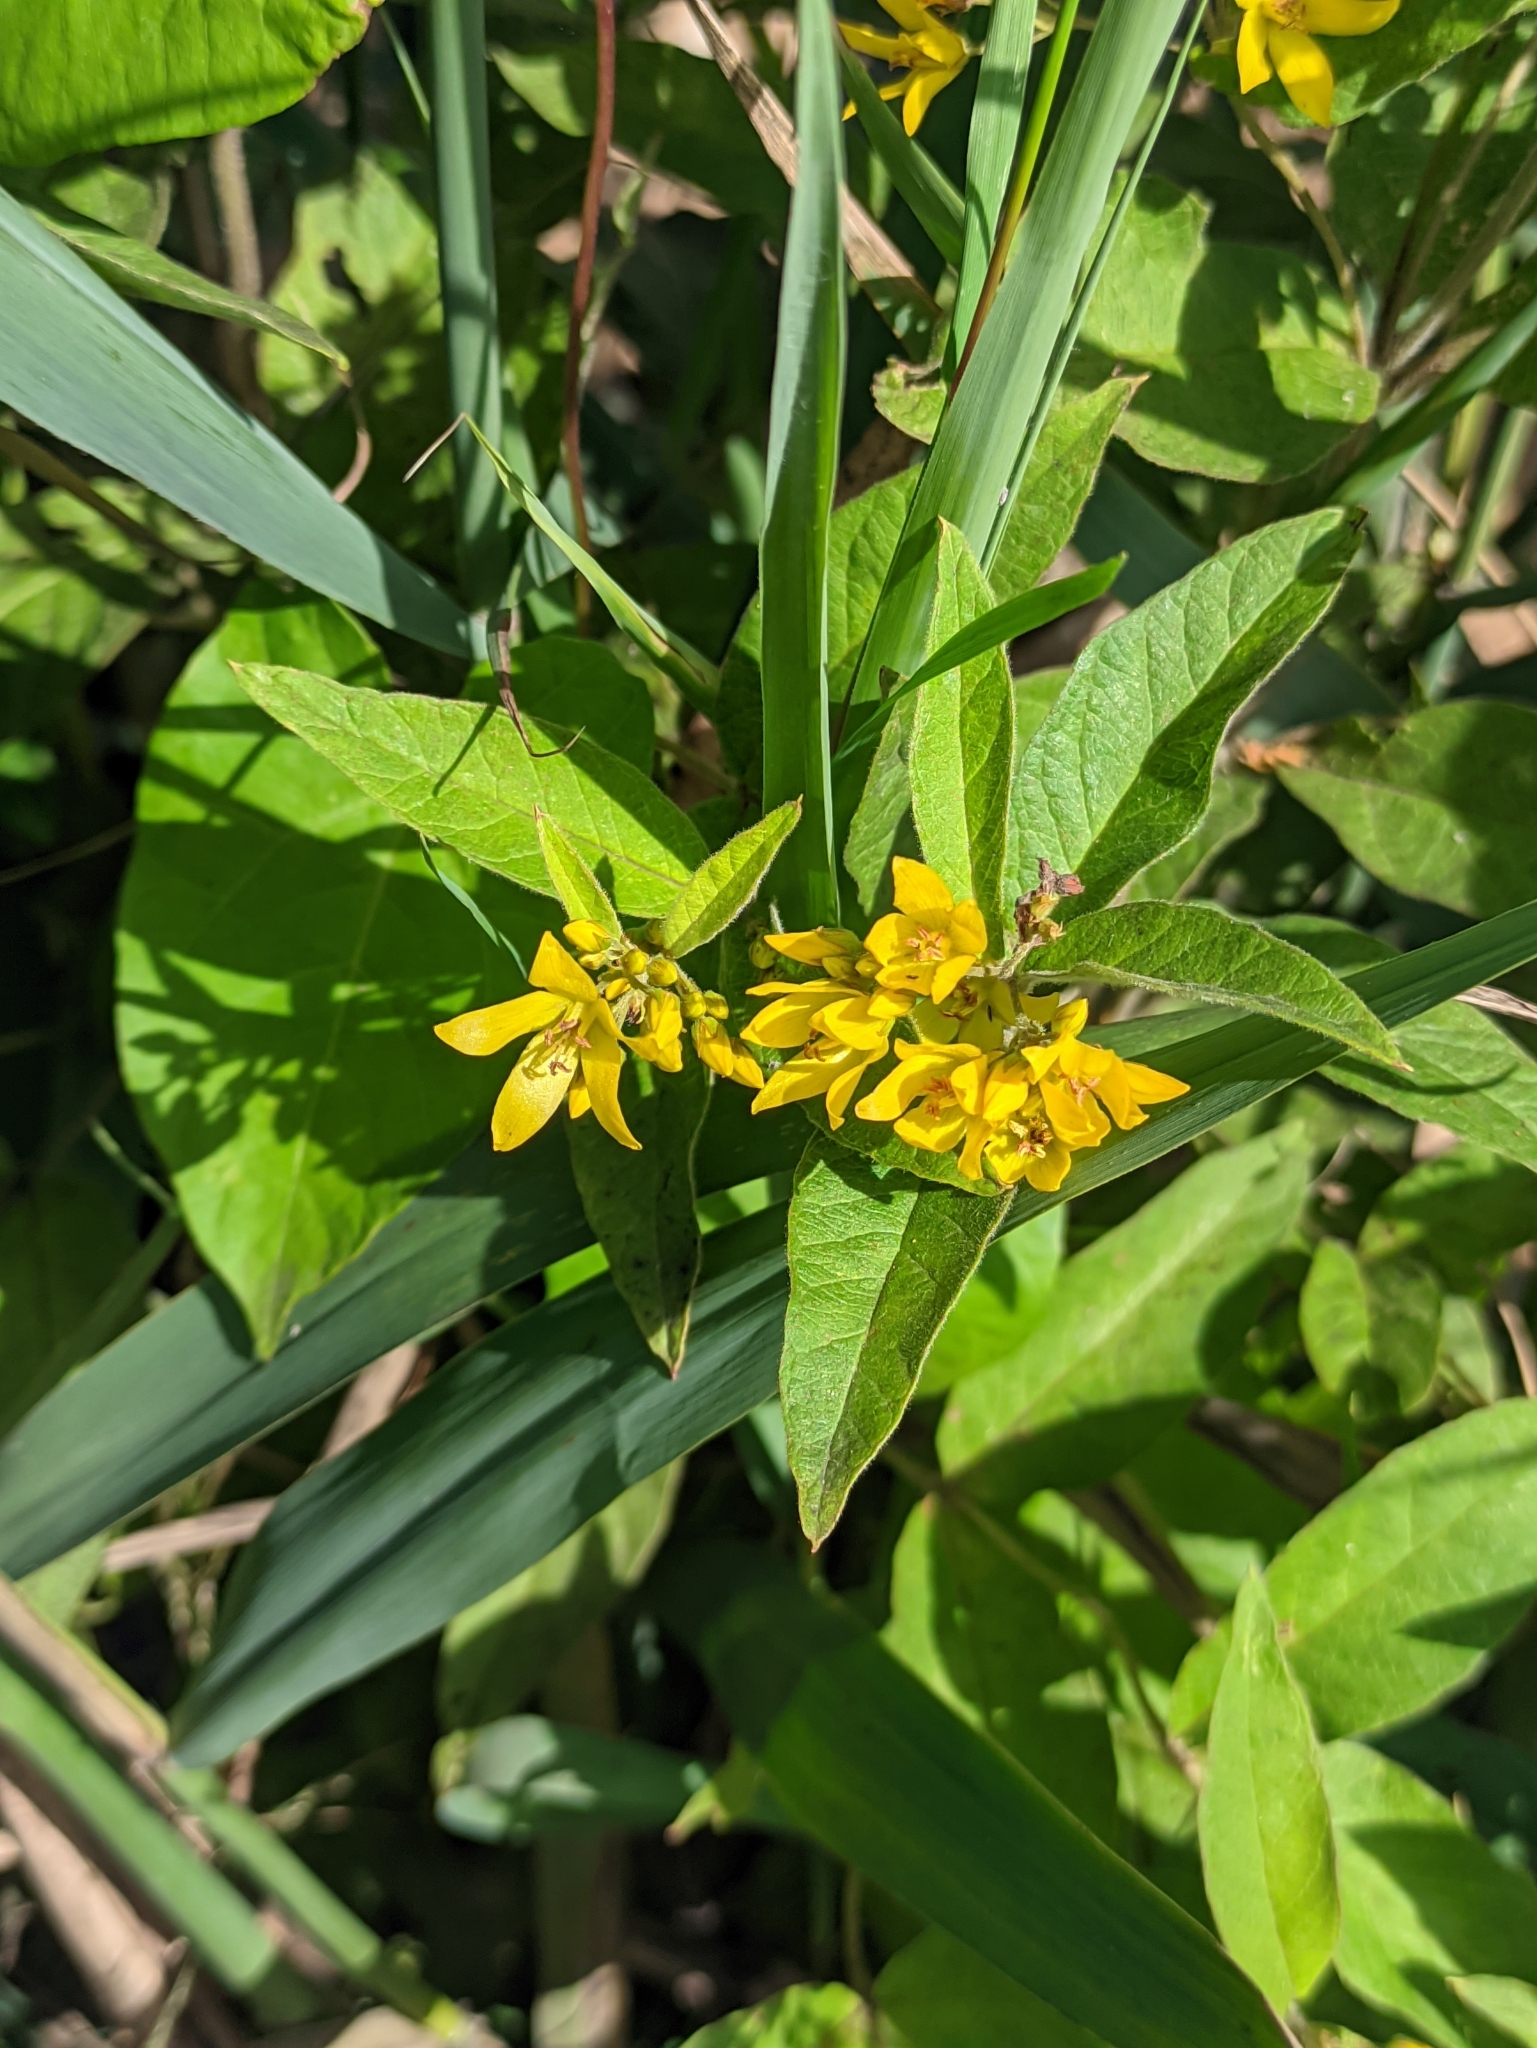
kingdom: Plantae
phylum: Tracheophyta
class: Magnoliopsida
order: Ericales
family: Primulaceae
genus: Lysimachia
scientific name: Lysimachia vulgaris
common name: Yellow loosestrife
